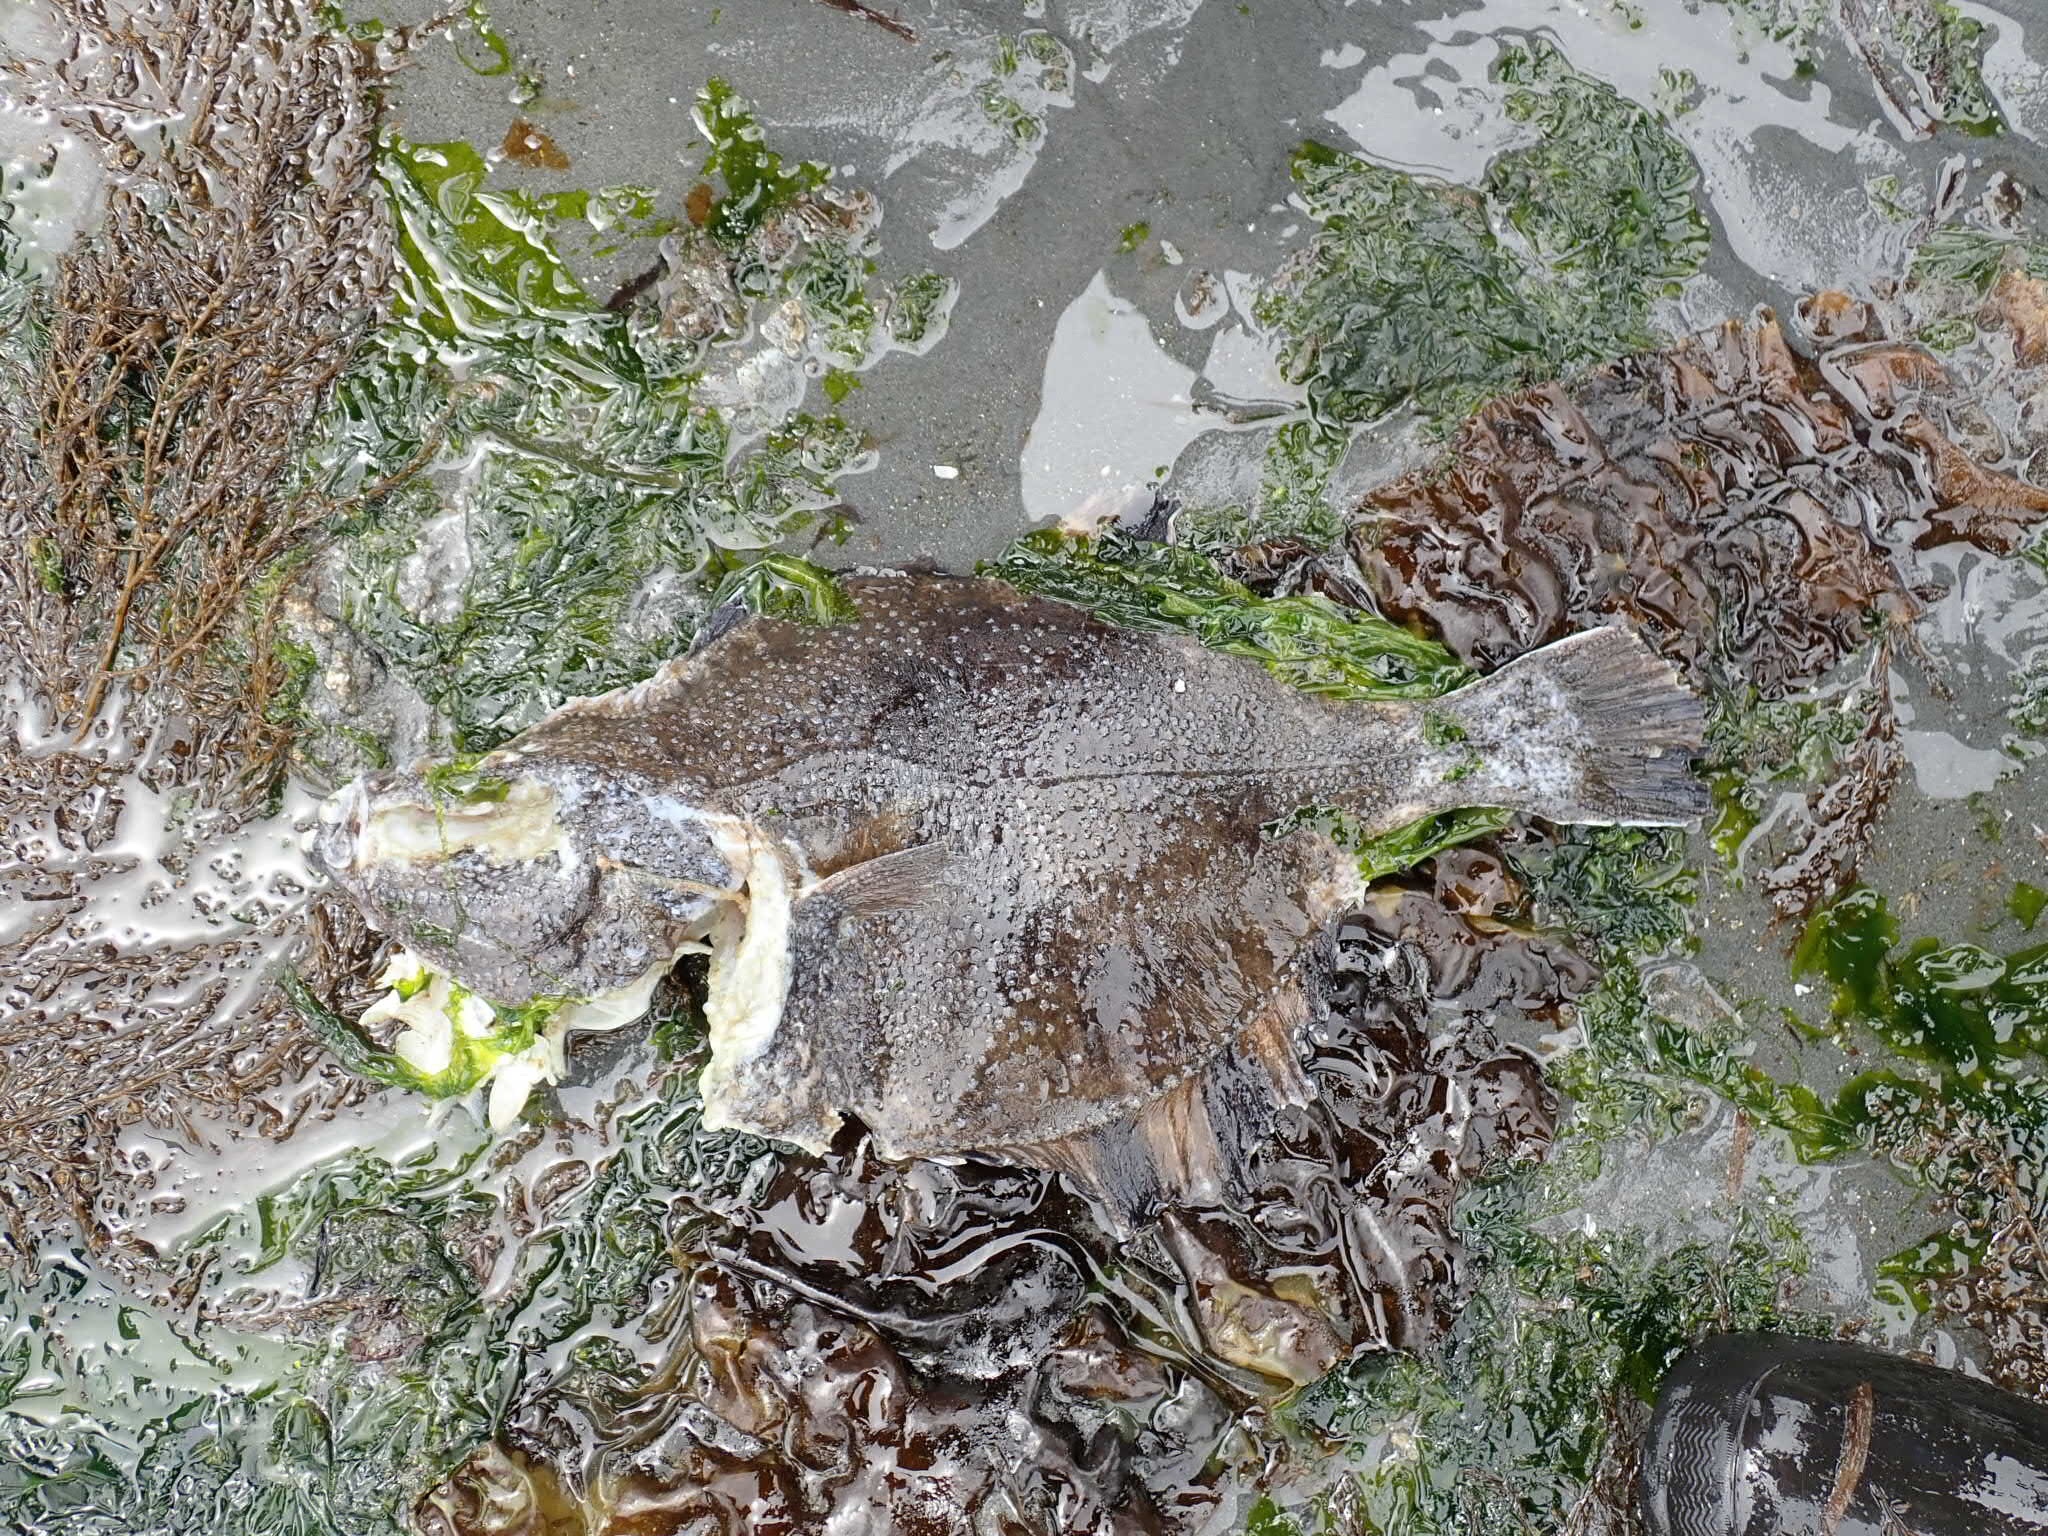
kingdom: Animalia
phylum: Chordata
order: Pleuronectiformes
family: Pleuronectidae
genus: Platichthys
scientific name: Platichthys stellatus
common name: Starry flounder
